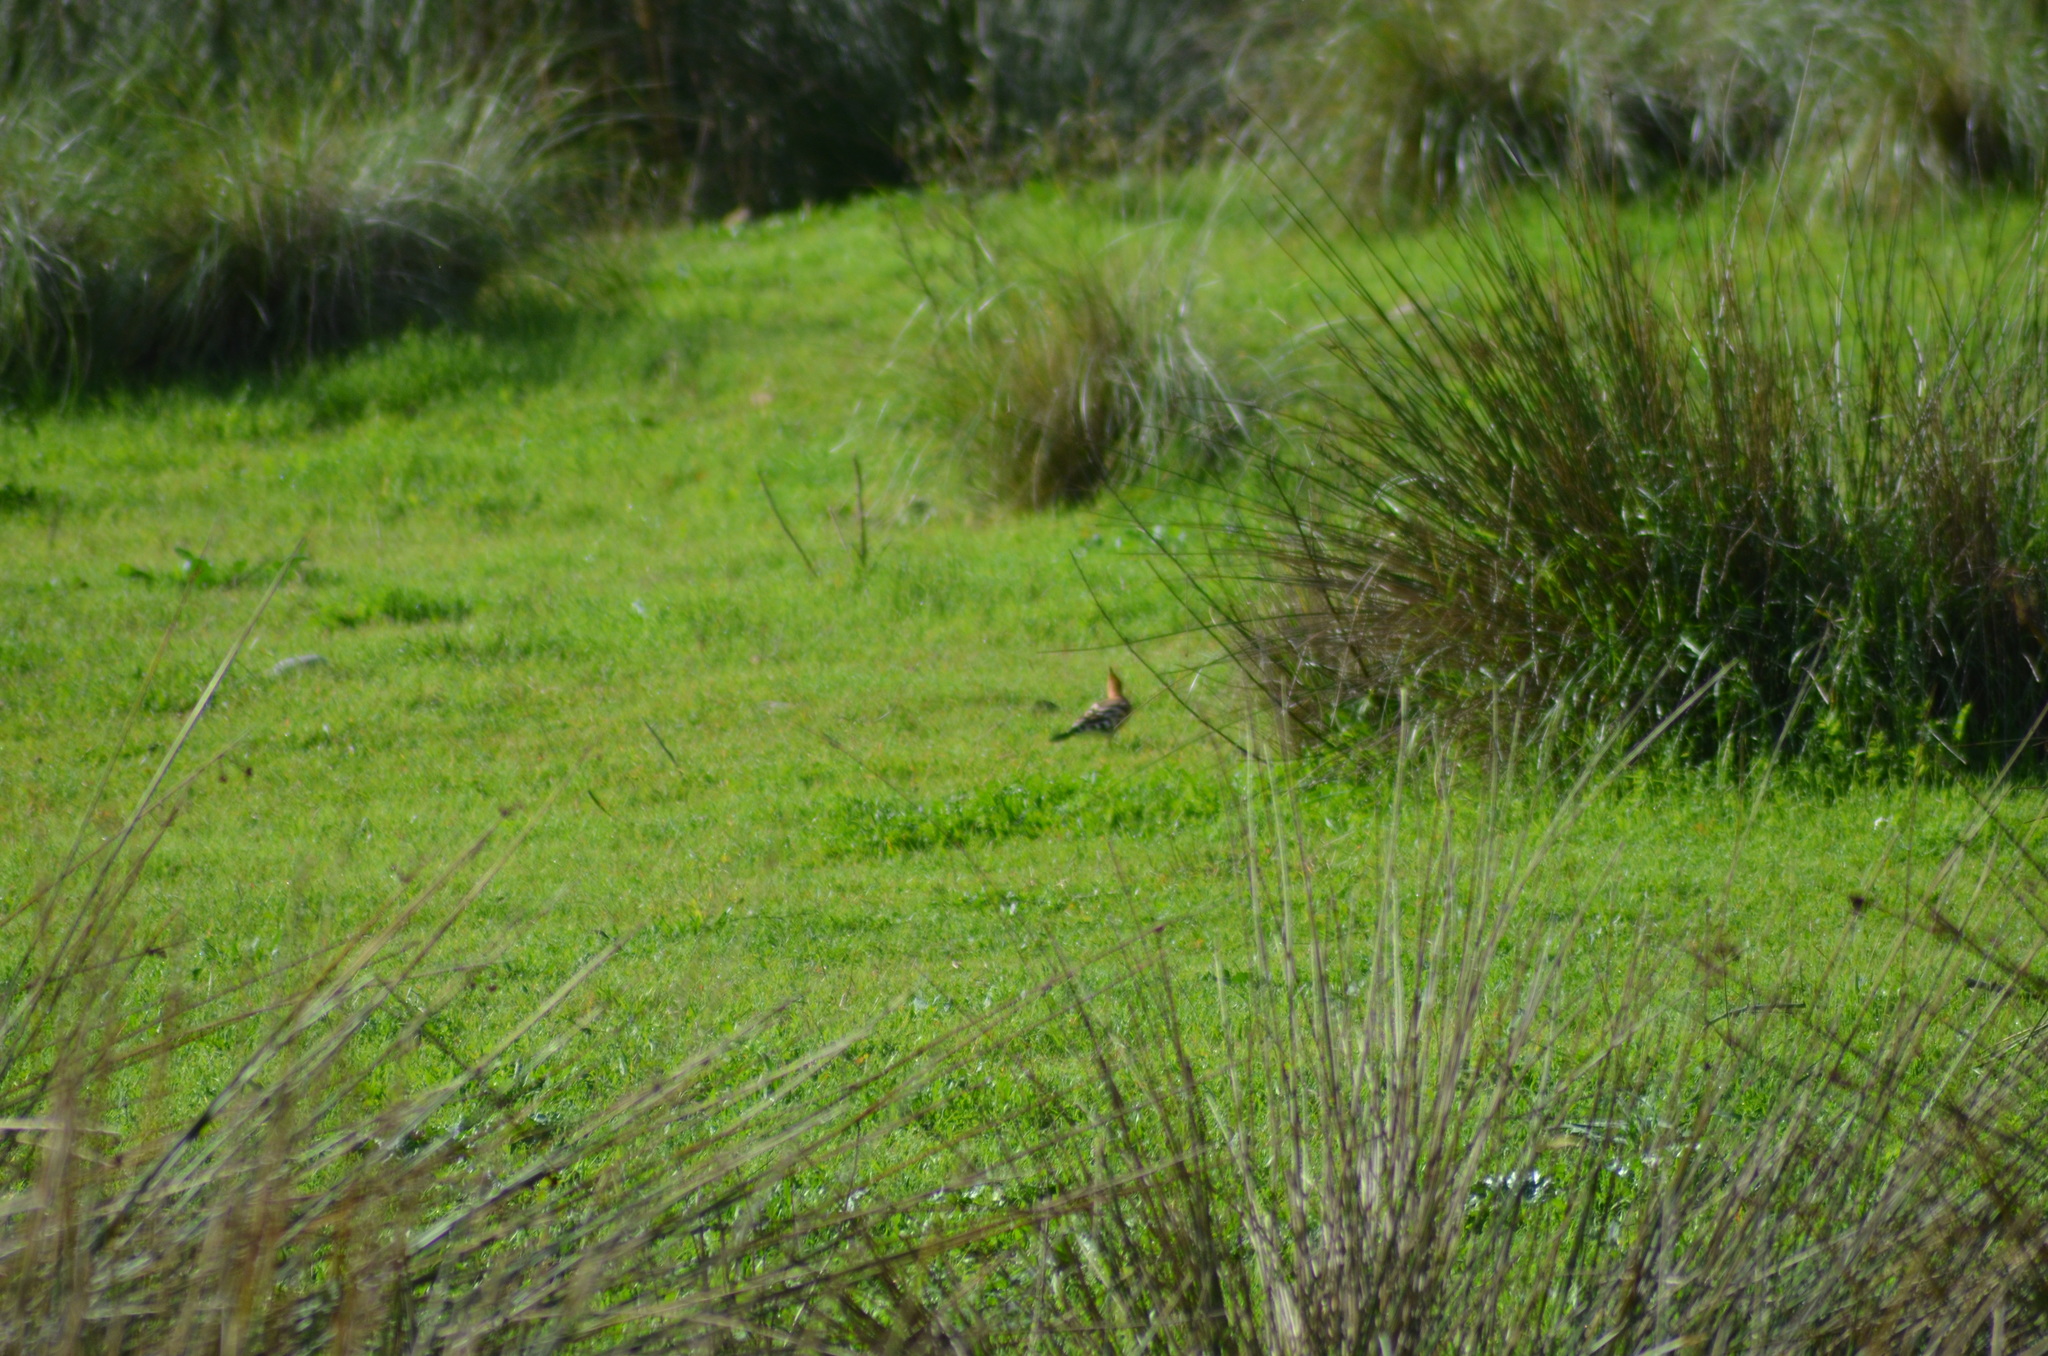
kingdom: Animalia
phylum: Chordata
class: Aves
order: Bucerotiformes
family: Upupidae
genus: Upupa
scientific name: Upupa epops
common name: Eurasian hoopoe
